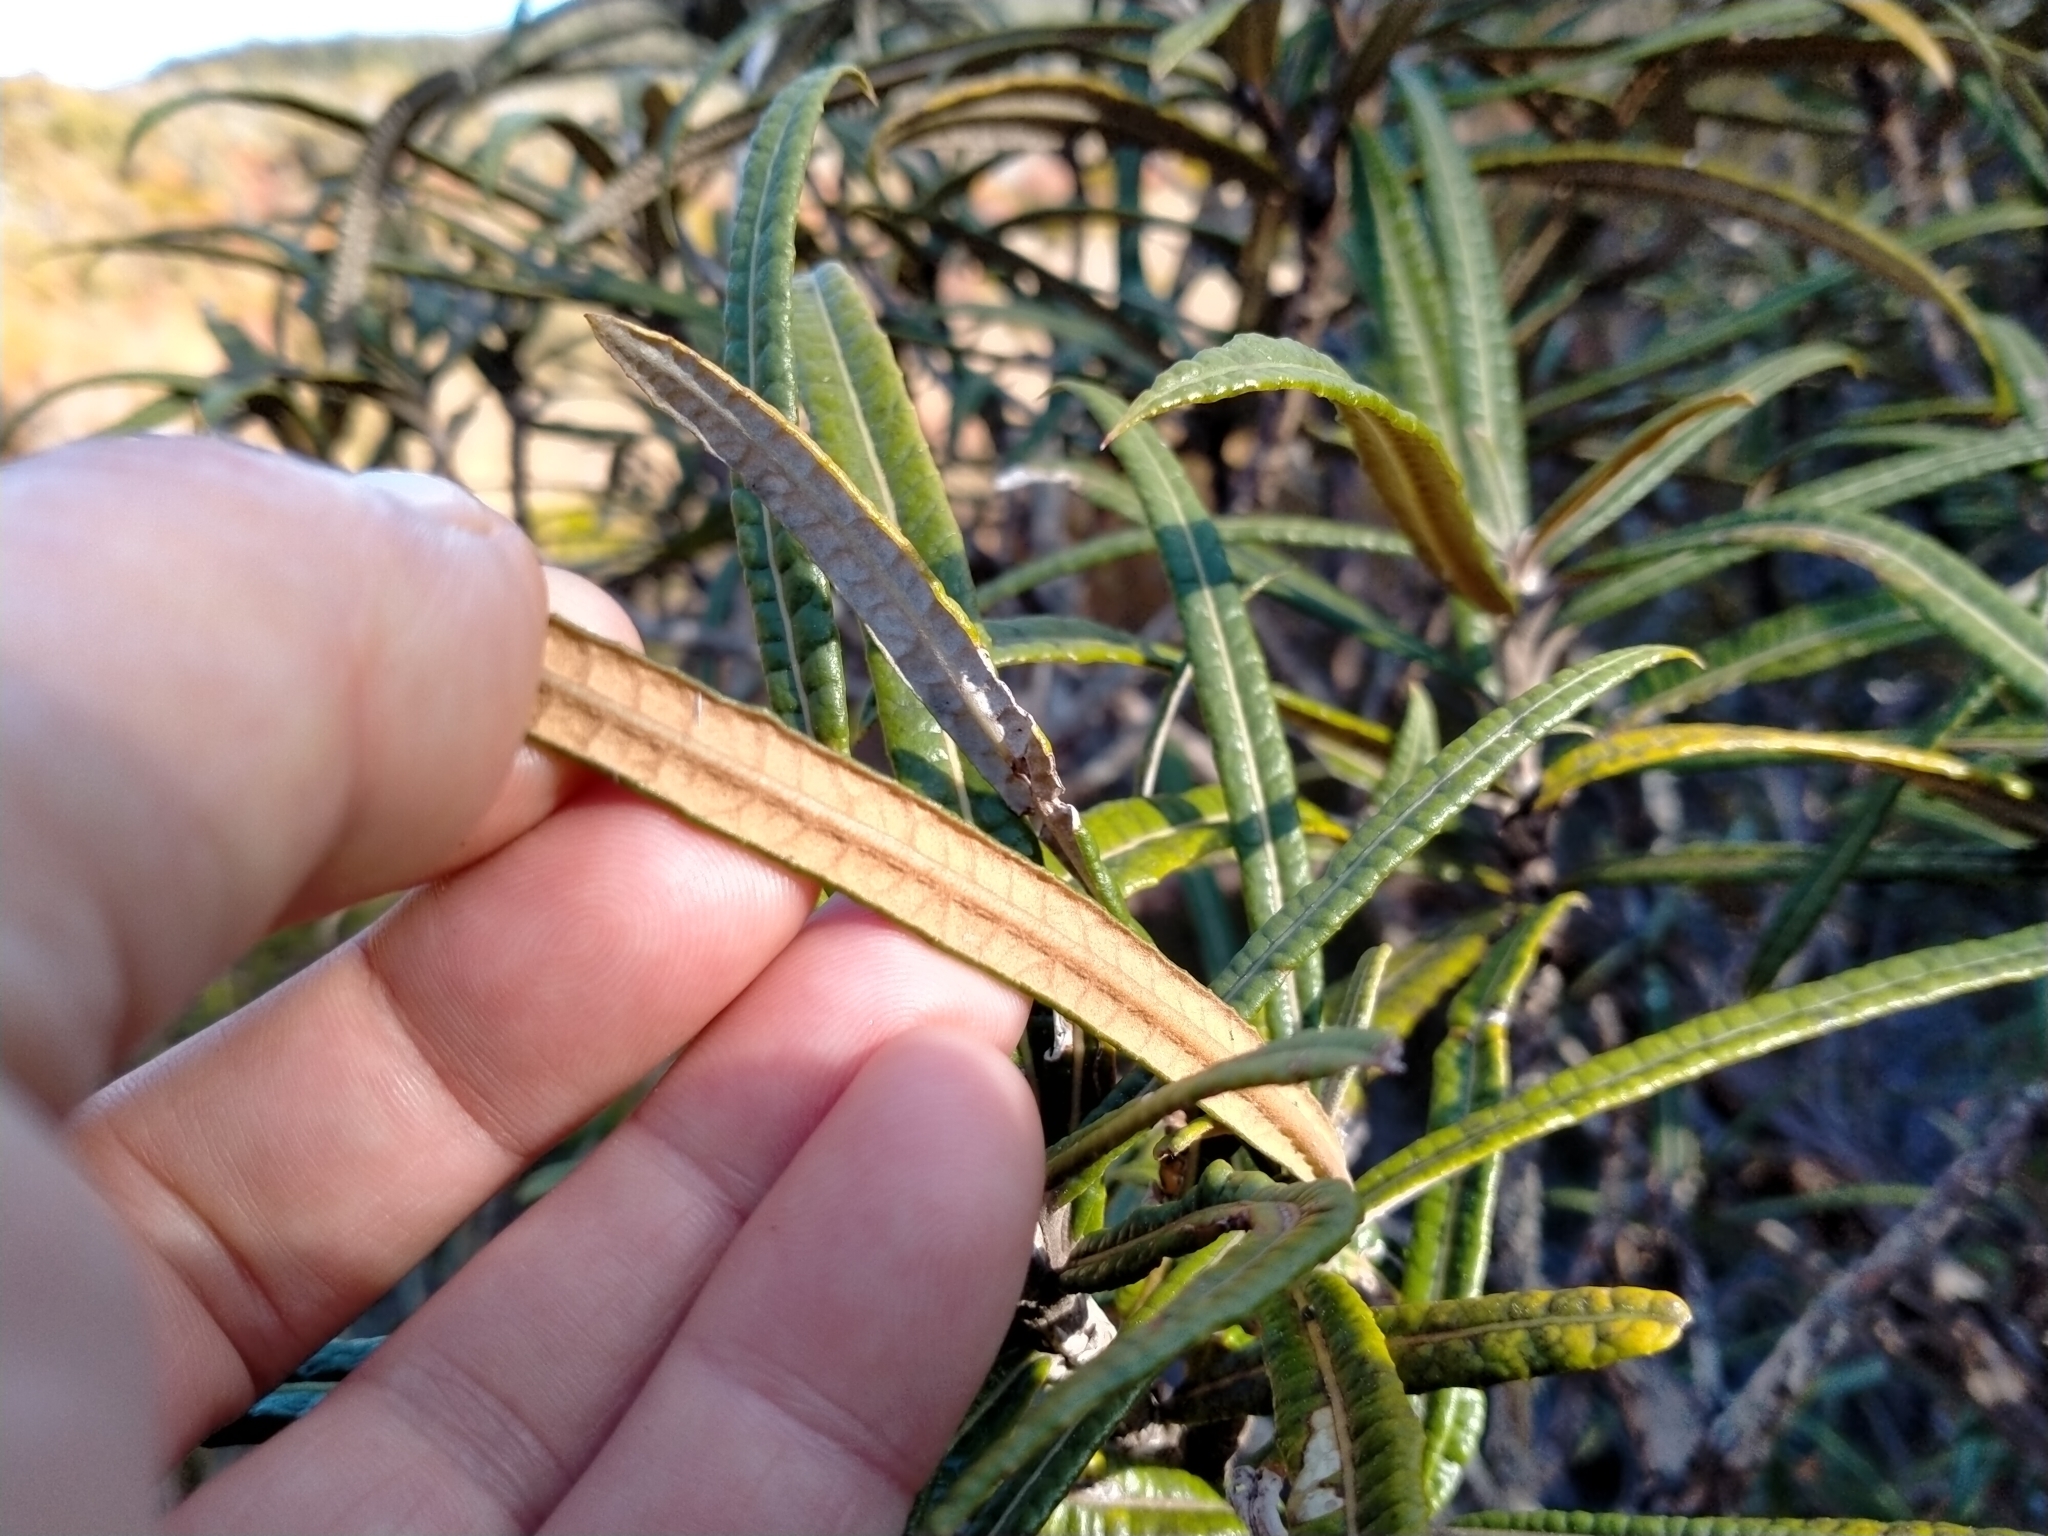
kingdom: Plantae
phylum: Tracheophyta
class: Magnoliopsida
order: Asterales
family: Asteraceae
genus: Olearia
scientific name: Olearia lacunosa
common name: Lancewood tree daisy
